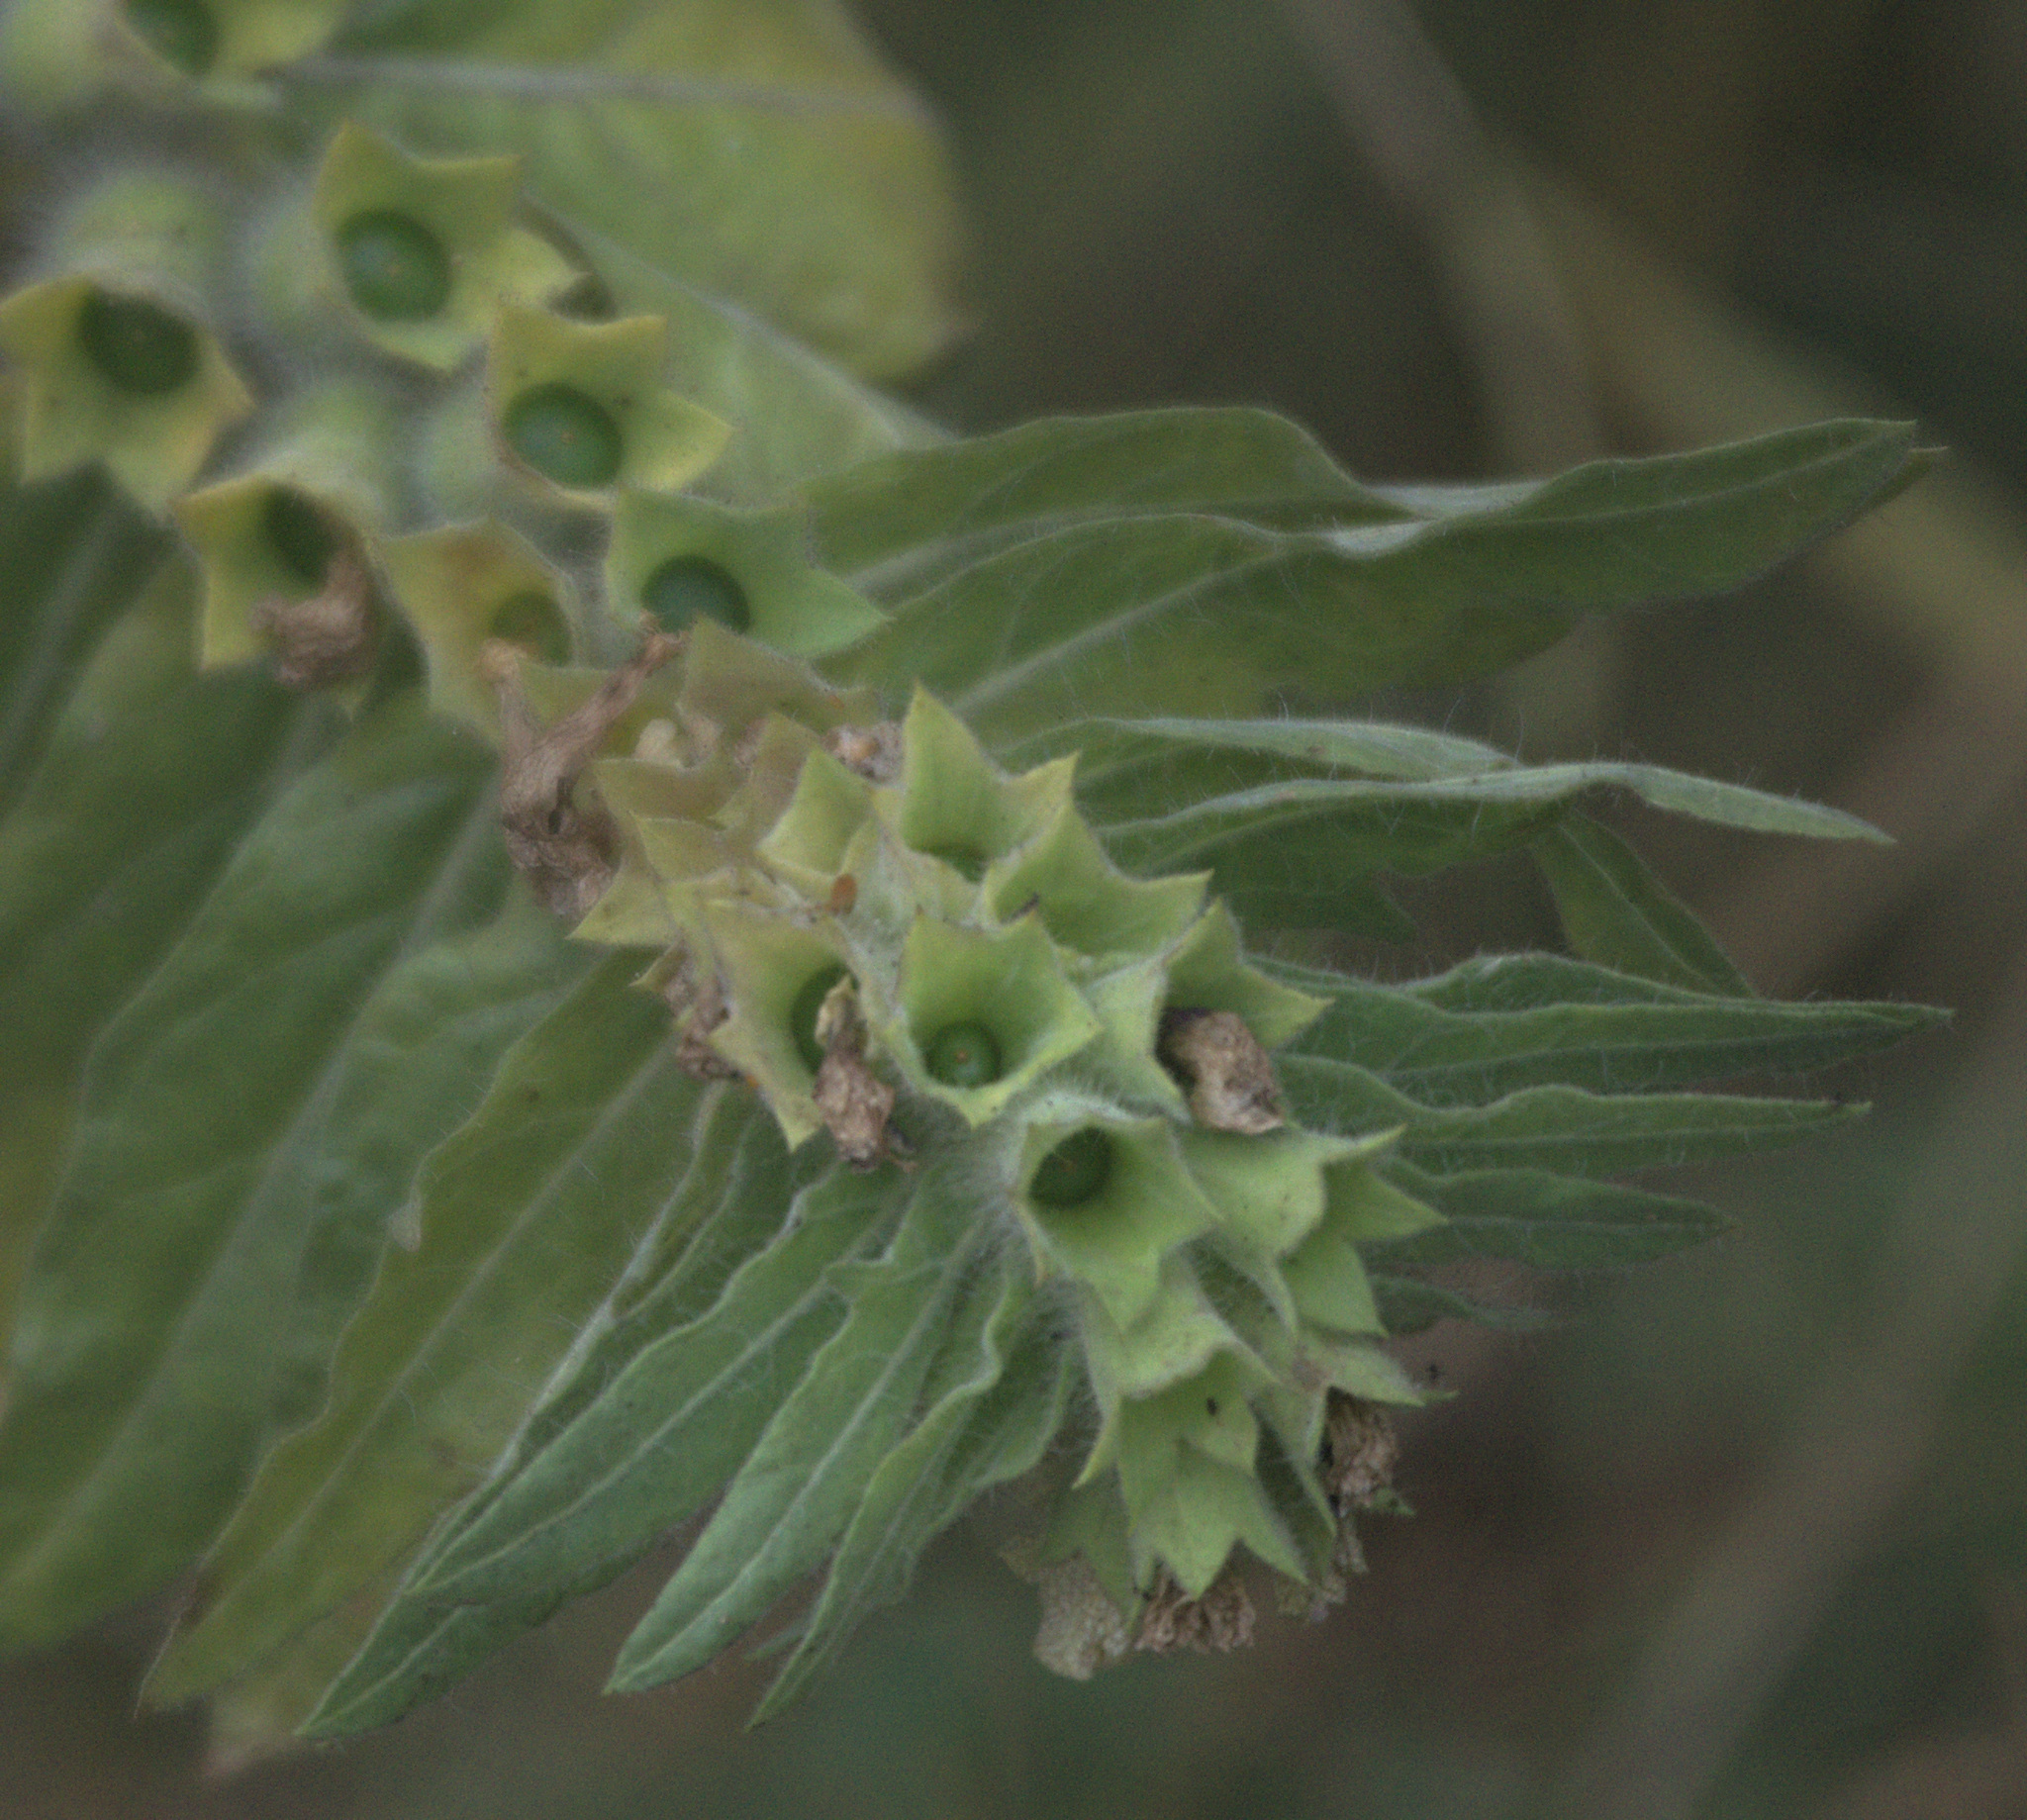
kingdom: Plantae
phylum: Tracheophyta
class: Magnoliopsida
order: Solanales
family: Solanaceae
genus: Hyoscyamus
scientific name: Hyoscyamus niger
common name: Henbane
